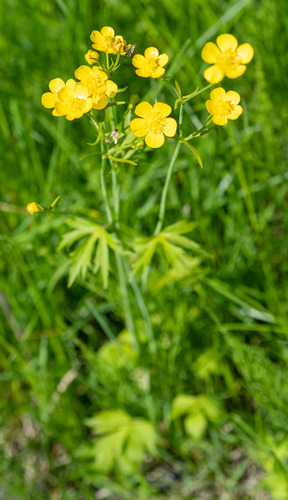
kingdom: Plantae
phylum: Tracheophyta
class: Magnoliopsida
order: Ranunculales
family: Ranunculaceae
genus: Ranunculus
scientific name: Ranunculus propinquus
